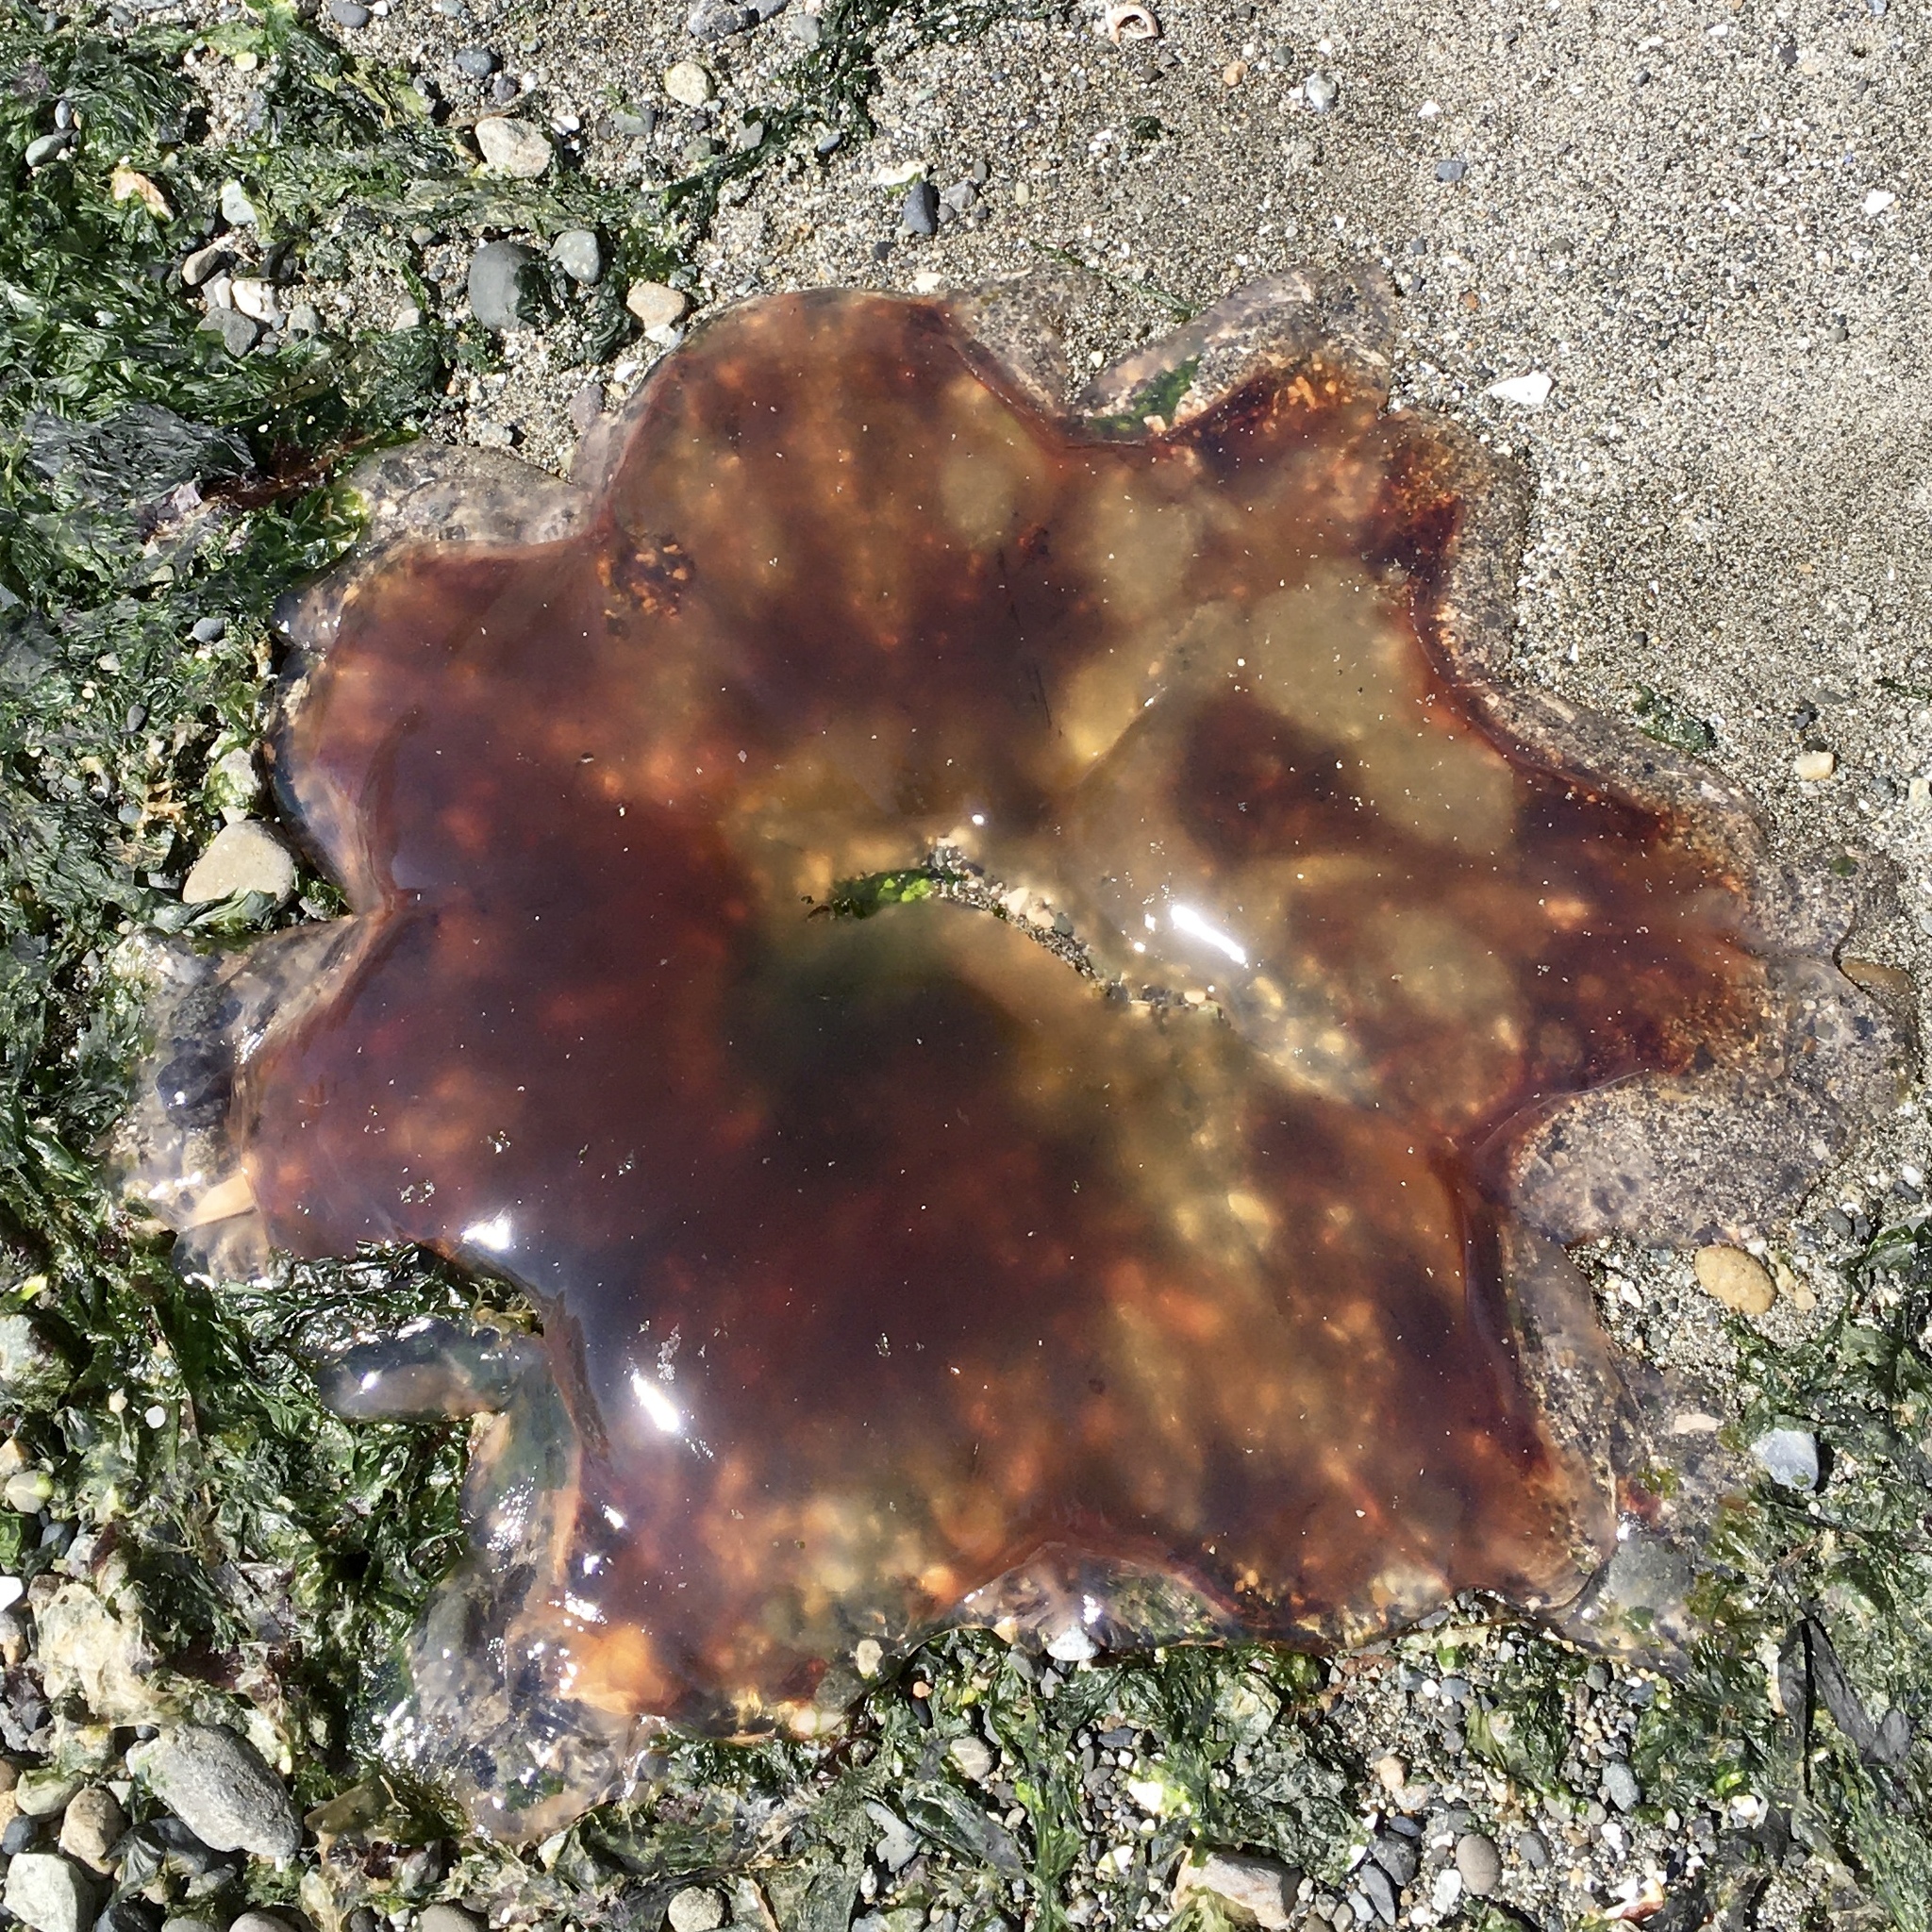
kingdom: Animalia
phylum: Cnidaria
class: Scyphozoa
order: Semaeostomeae
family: Cyaneidae
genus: Cyanea
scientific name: Cyanea ferruginea
